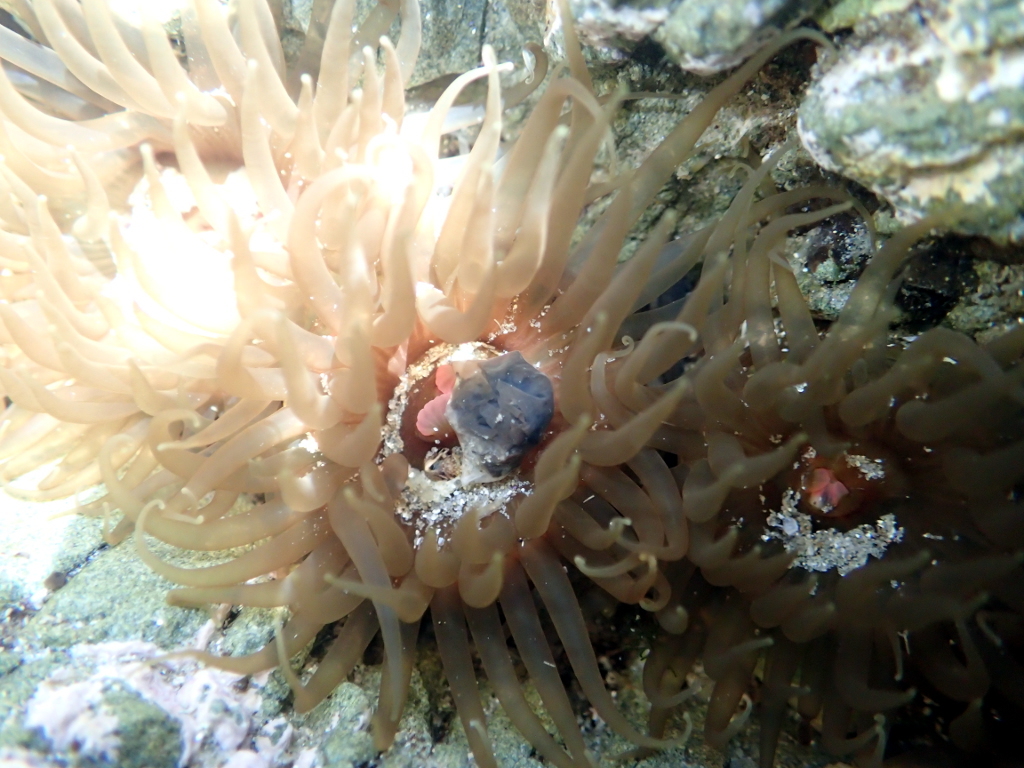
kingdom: Animalia
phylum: Cnidaria
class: Anthozoa
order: Actiniaria
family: Actiniidae
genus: Isactinia
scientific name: Isactinia olivacea
